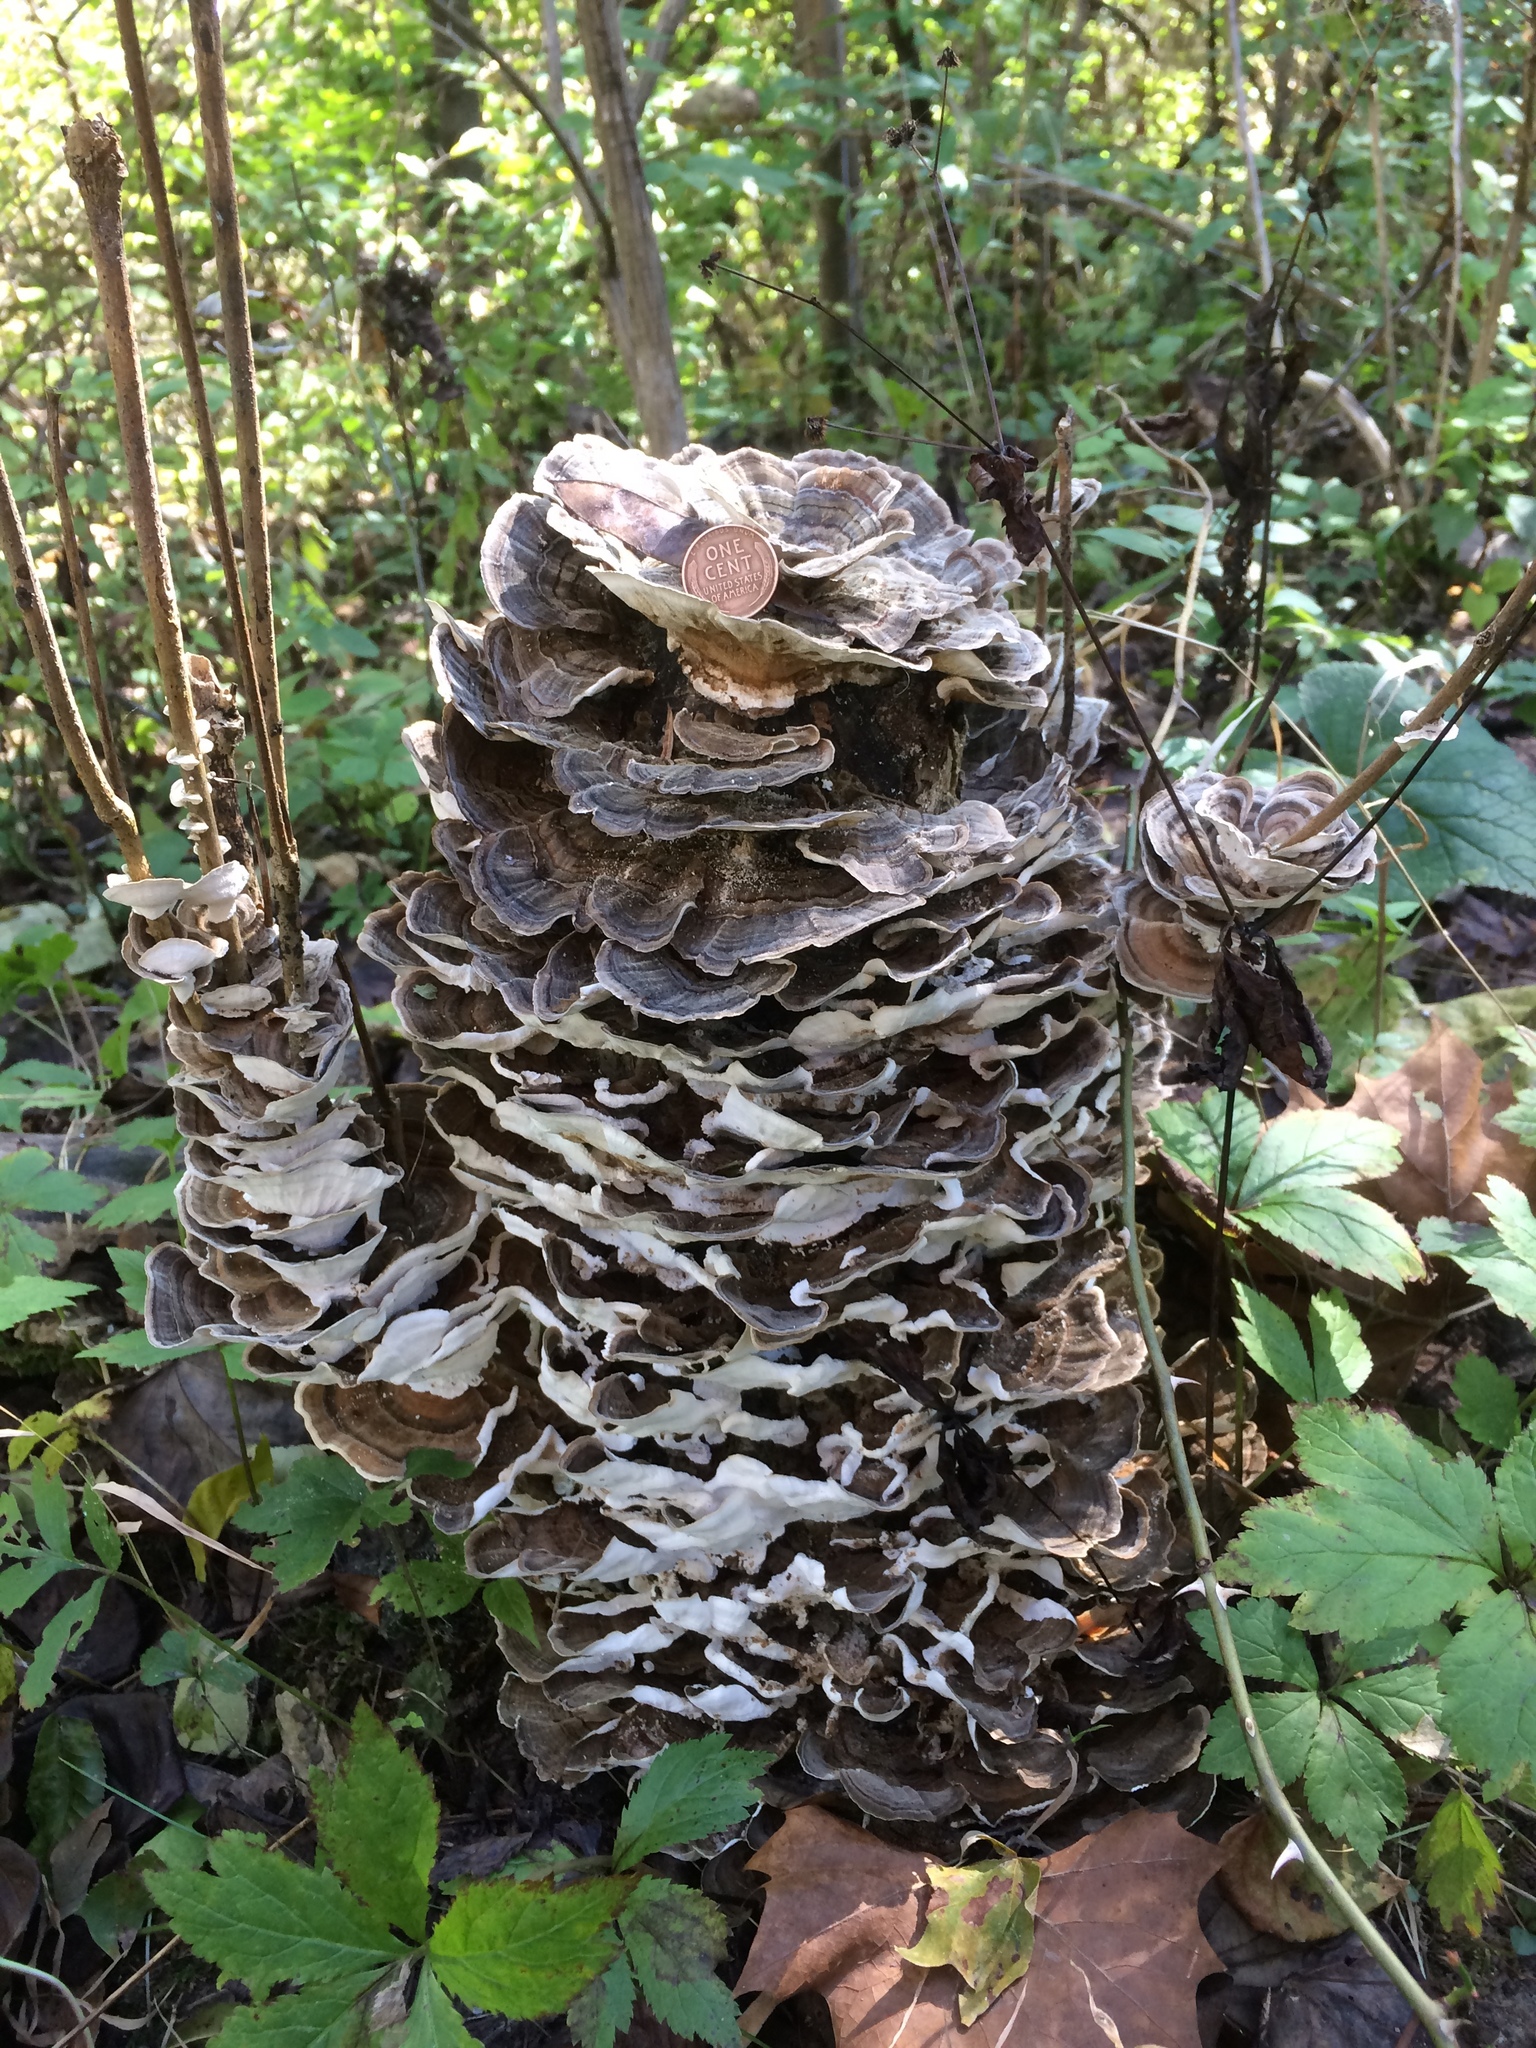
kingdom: Fungi
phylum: Basidiomycota
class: Agaricomycetes
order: Polyporales
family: Polyporaceae
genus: Trametes
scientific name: Trametes versicolor
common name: Turkeytail
